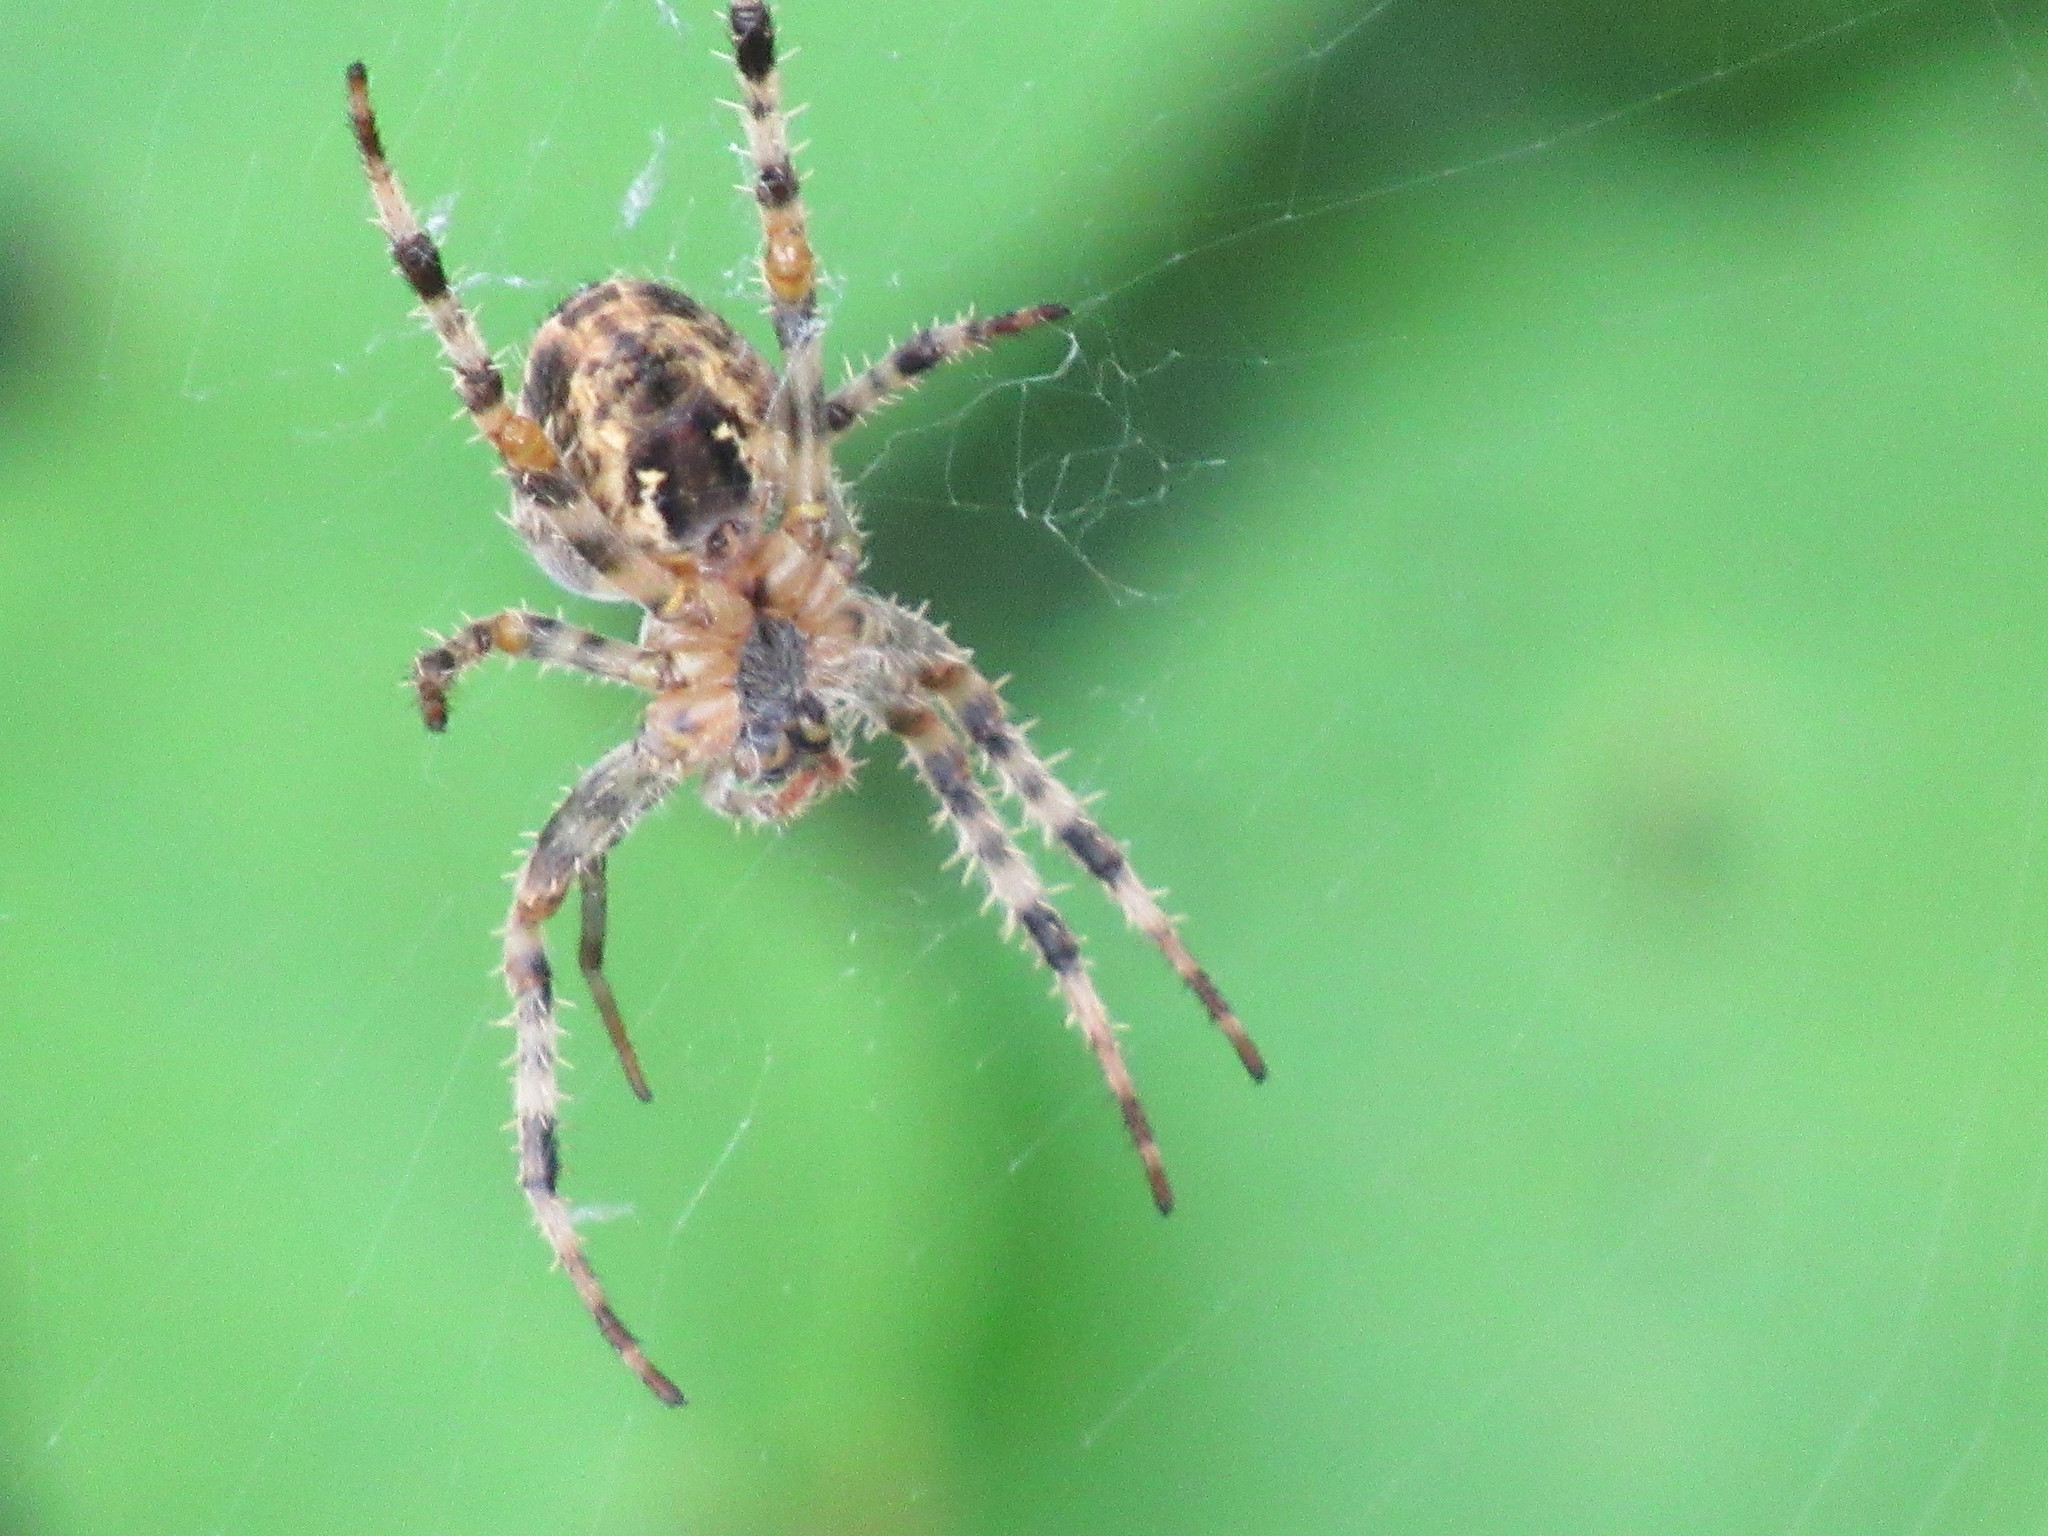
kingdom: Animalia
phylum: Arthropoda
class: Arachnida
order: Araneae
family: Araneidae
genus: Araneus
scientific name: Araneus diadematus
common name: Cross orbweaver
